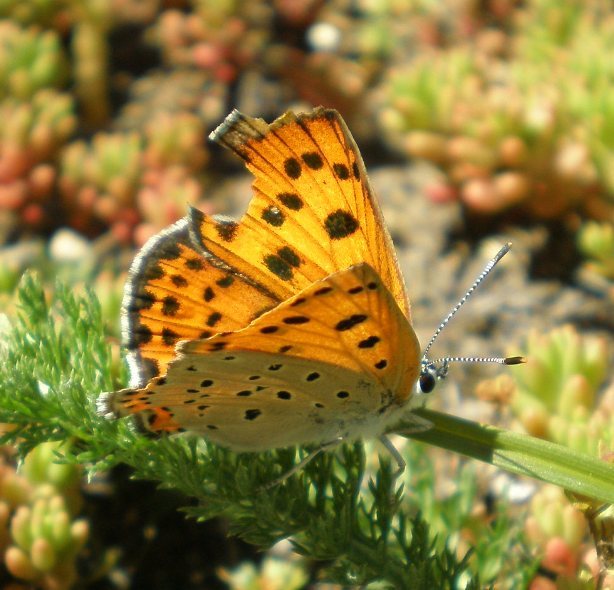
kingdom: Animalia
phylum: Arthropoda
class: Insecta
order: Lepidoptera
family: Lycaenidae
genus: Lycaena
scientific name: Lycaena alciphron
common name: Purple-shot copper
